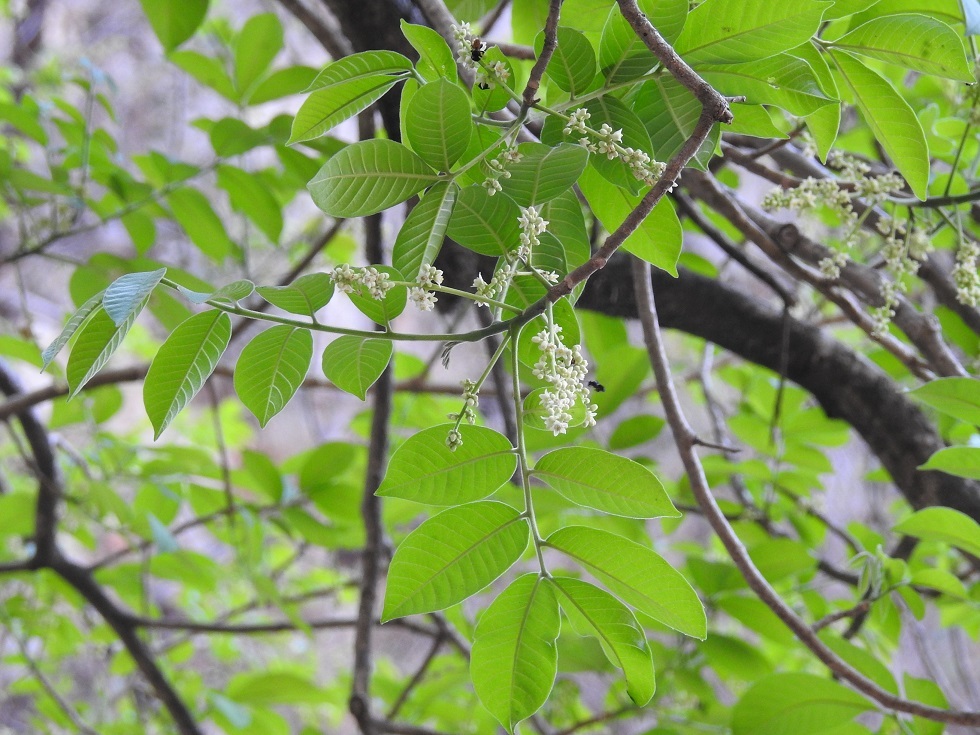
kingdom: Plantae
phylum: Tracheophyta
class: Magnoliopsida
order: Sapindales
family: Meliaceae
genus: Trichilia
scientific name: Trichilia martiana
